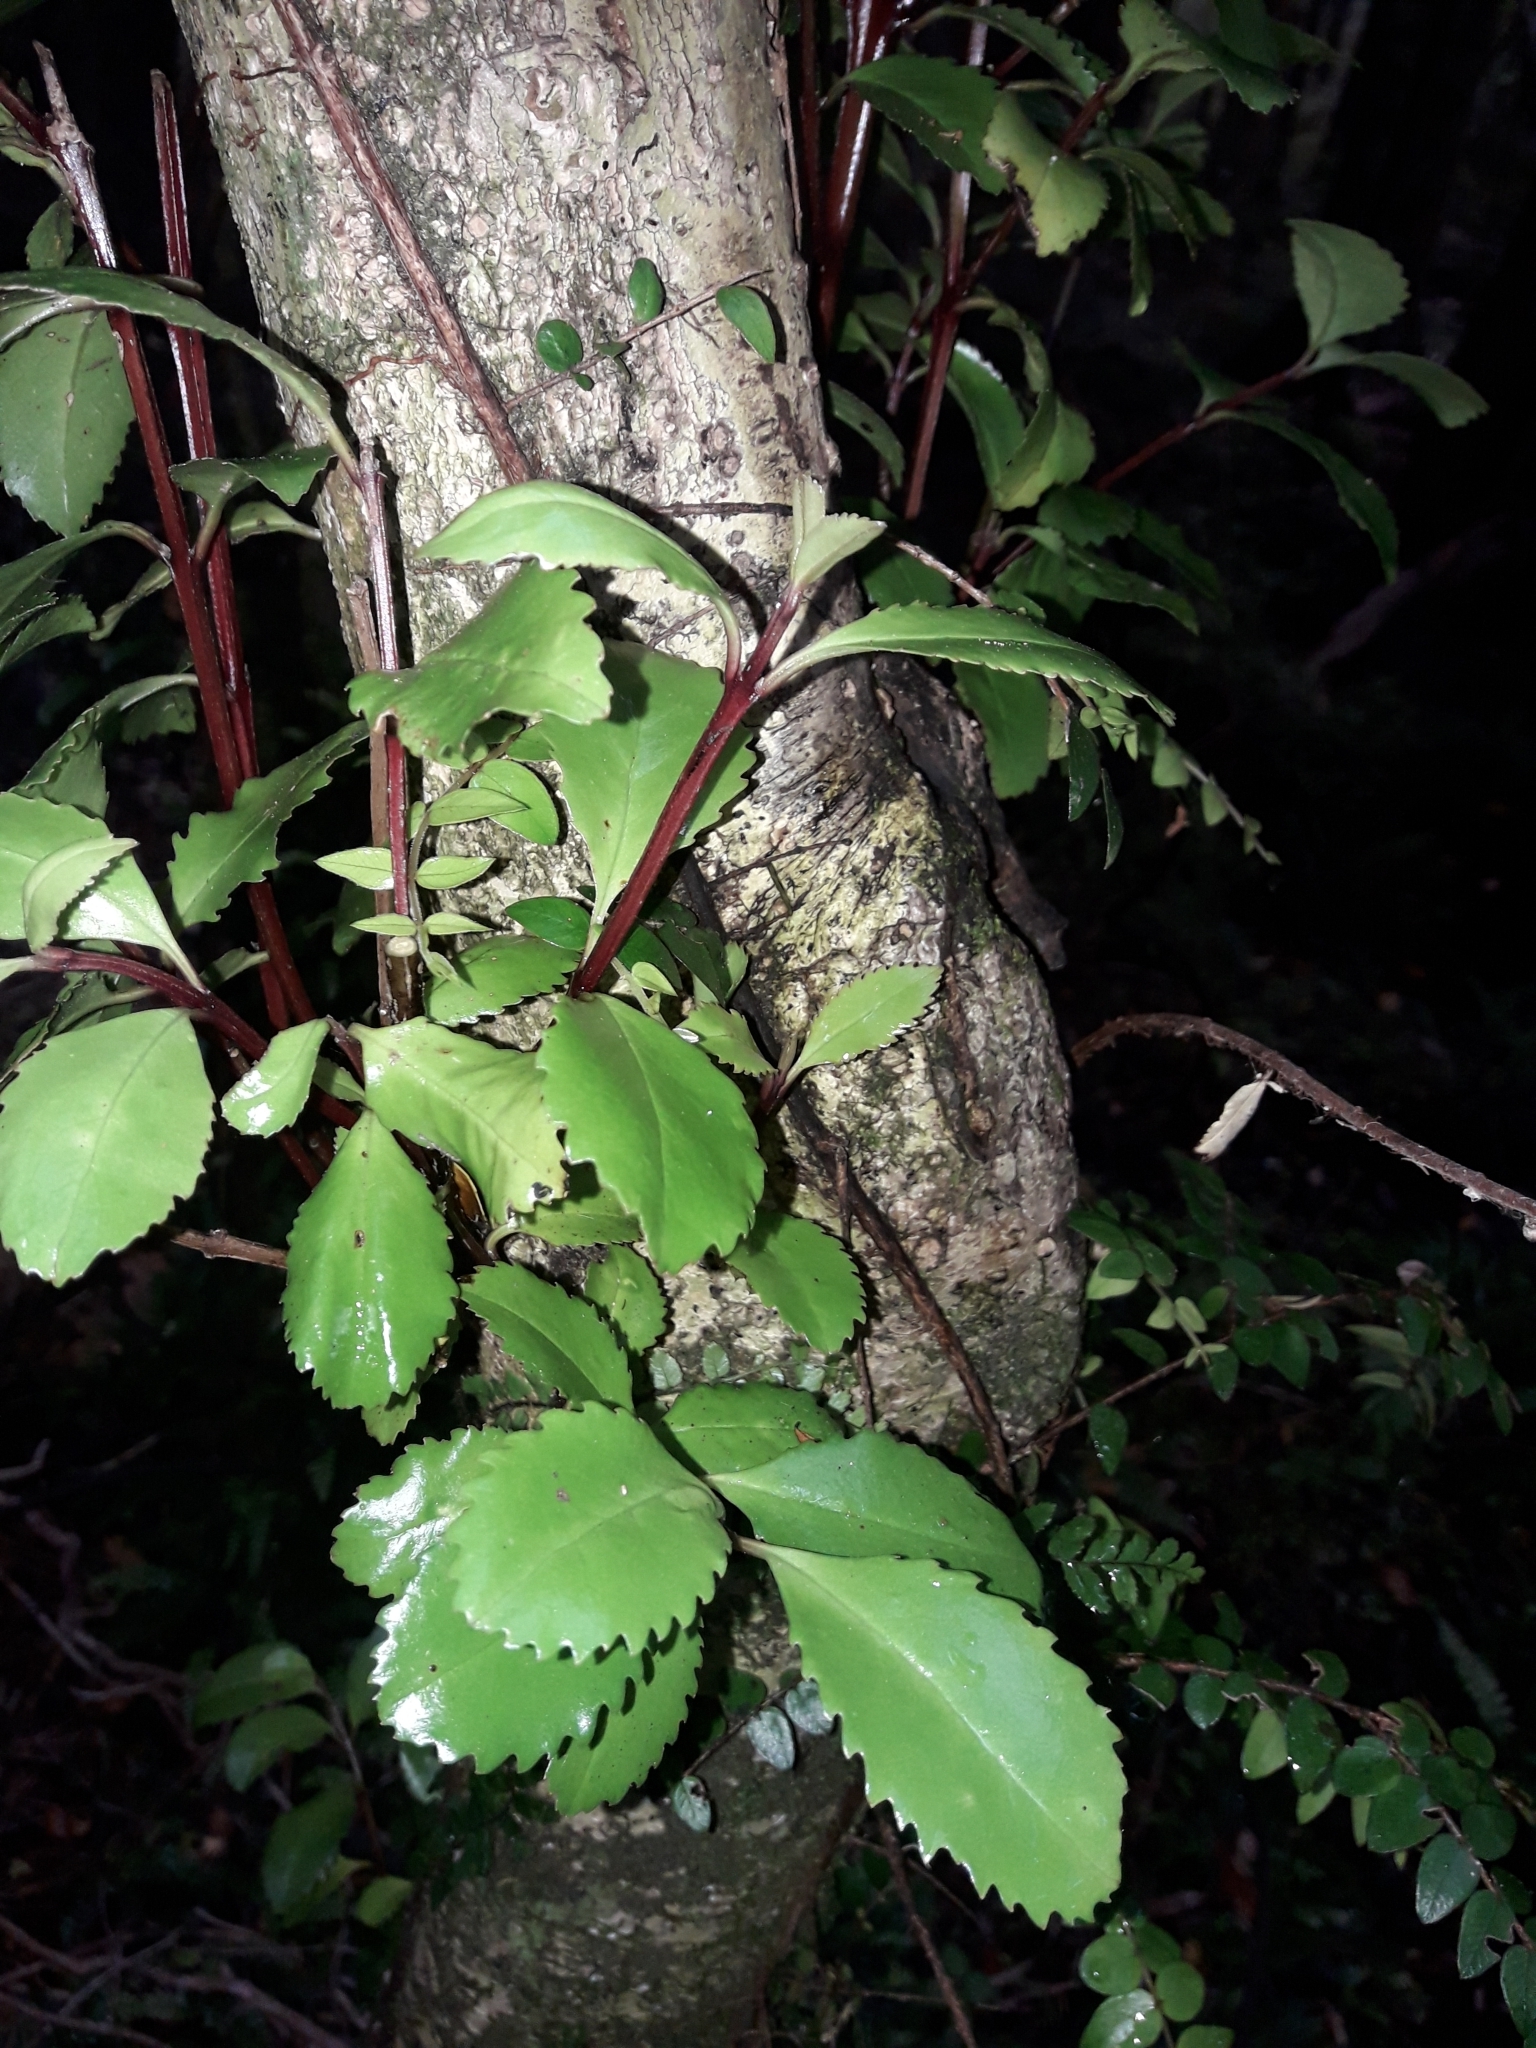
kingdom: Plantae
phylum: Tracheophyta
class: Magnoliopsida
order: Laurales
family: Atherospermataceae
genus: Laurelia
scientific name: Laurelia novae-zelandiae
